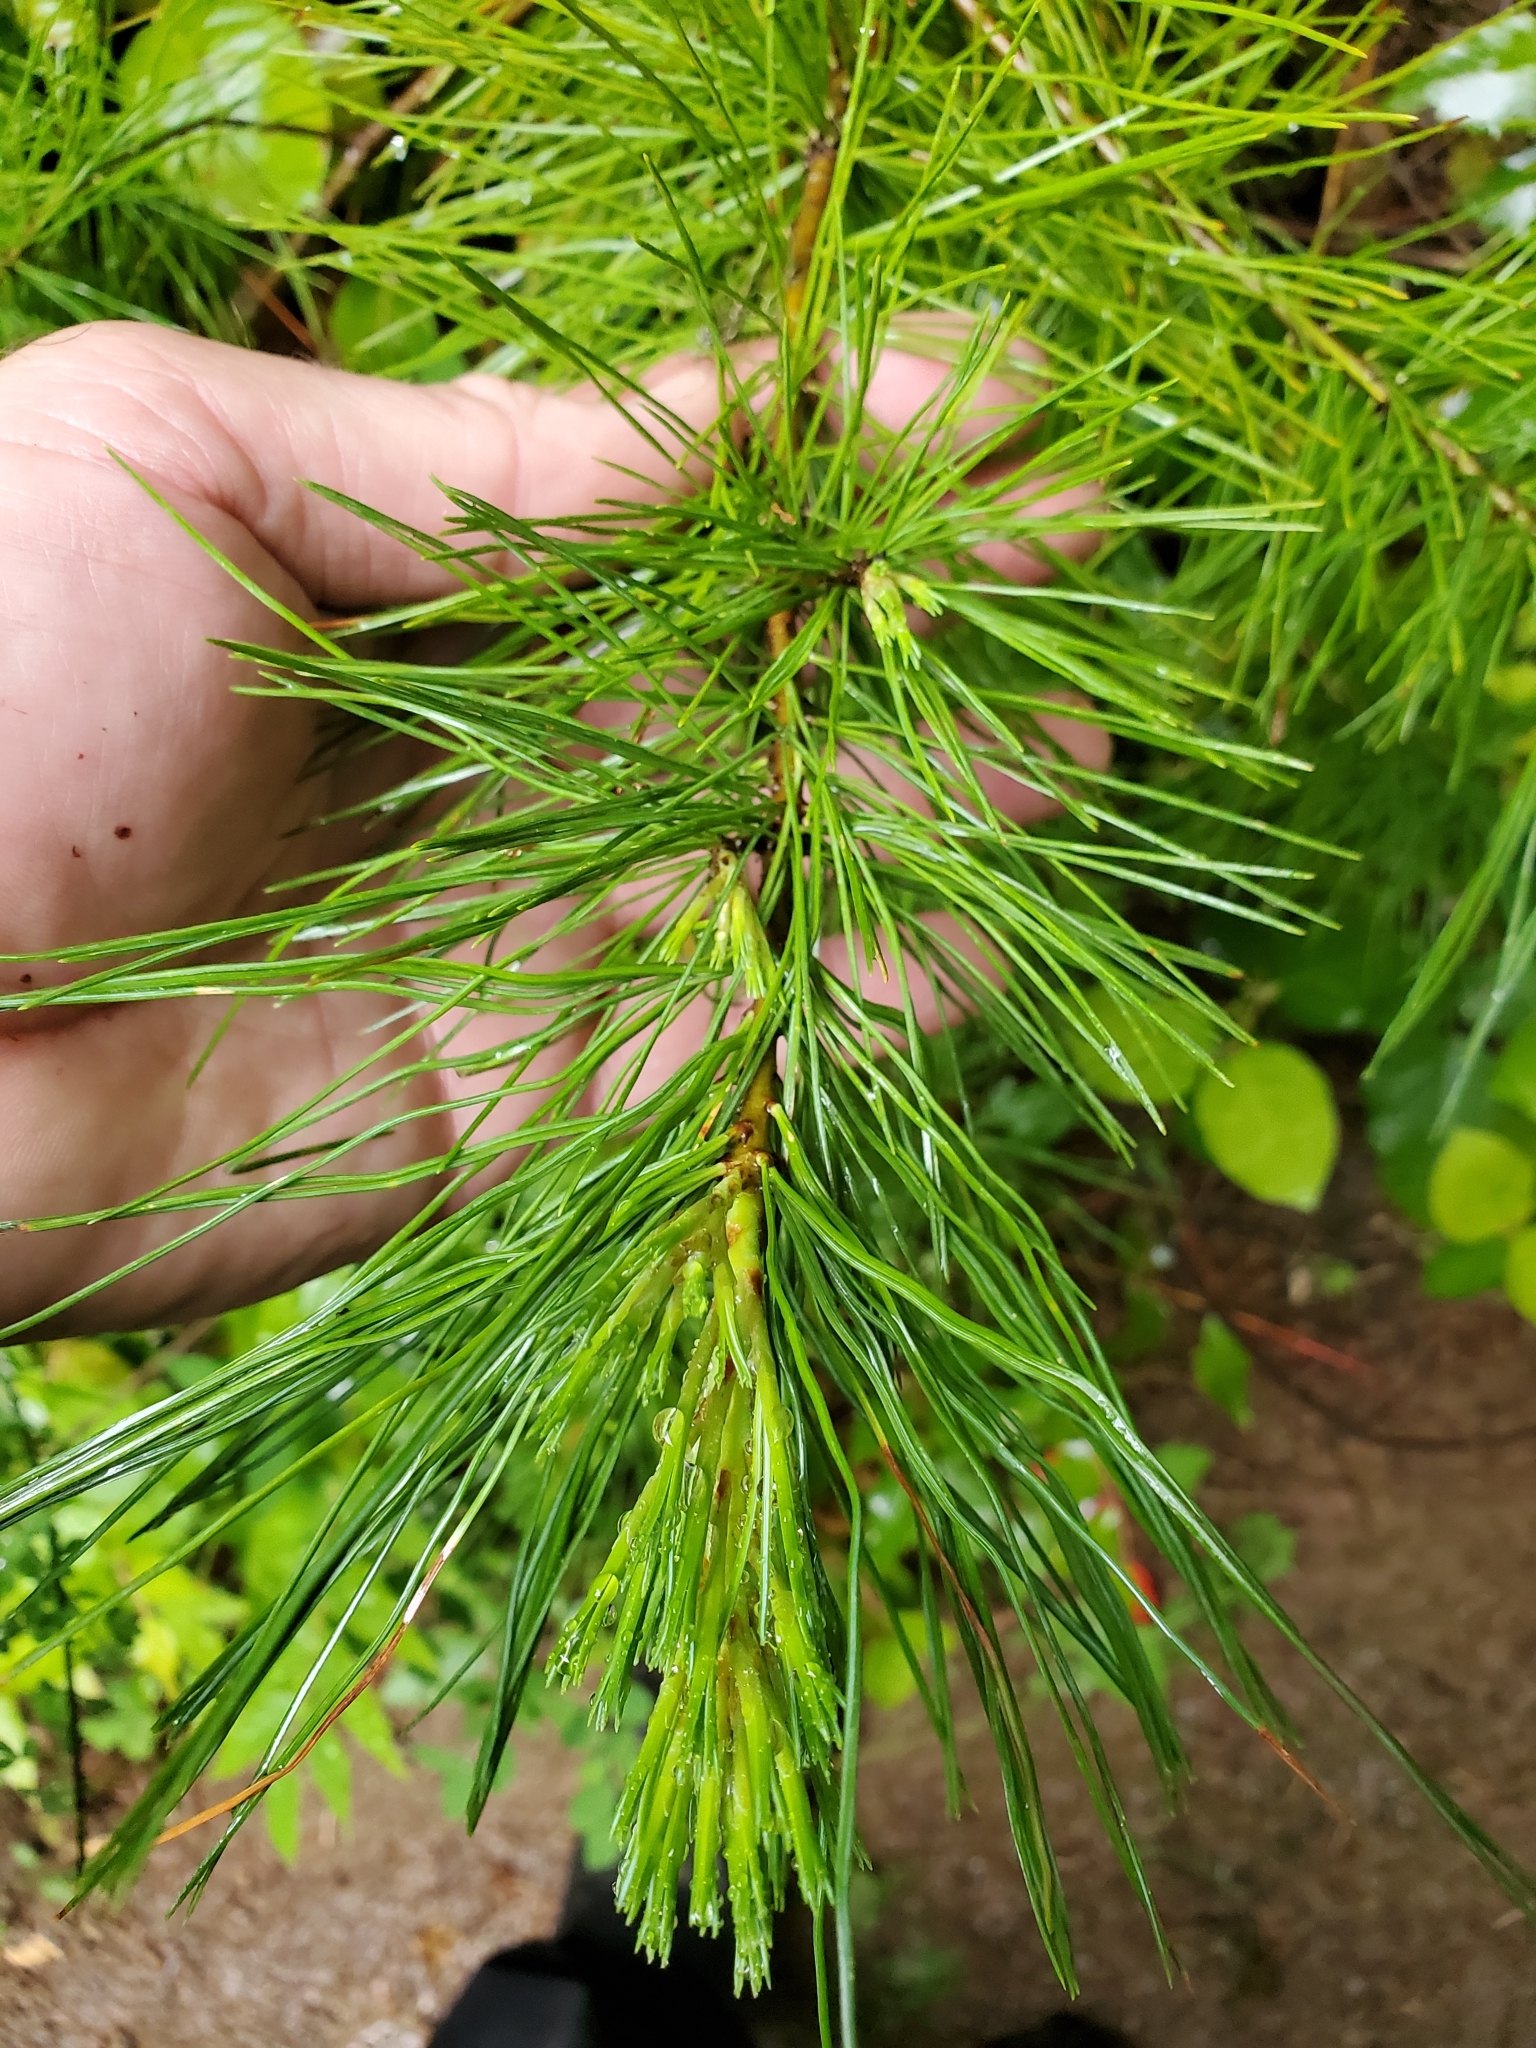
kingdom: Plantae
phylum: Tracheophyta
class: Pinopsida
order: Pinales
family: Pinaceae
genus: Pinus
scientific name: Pinus monticola
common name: Western white pine
